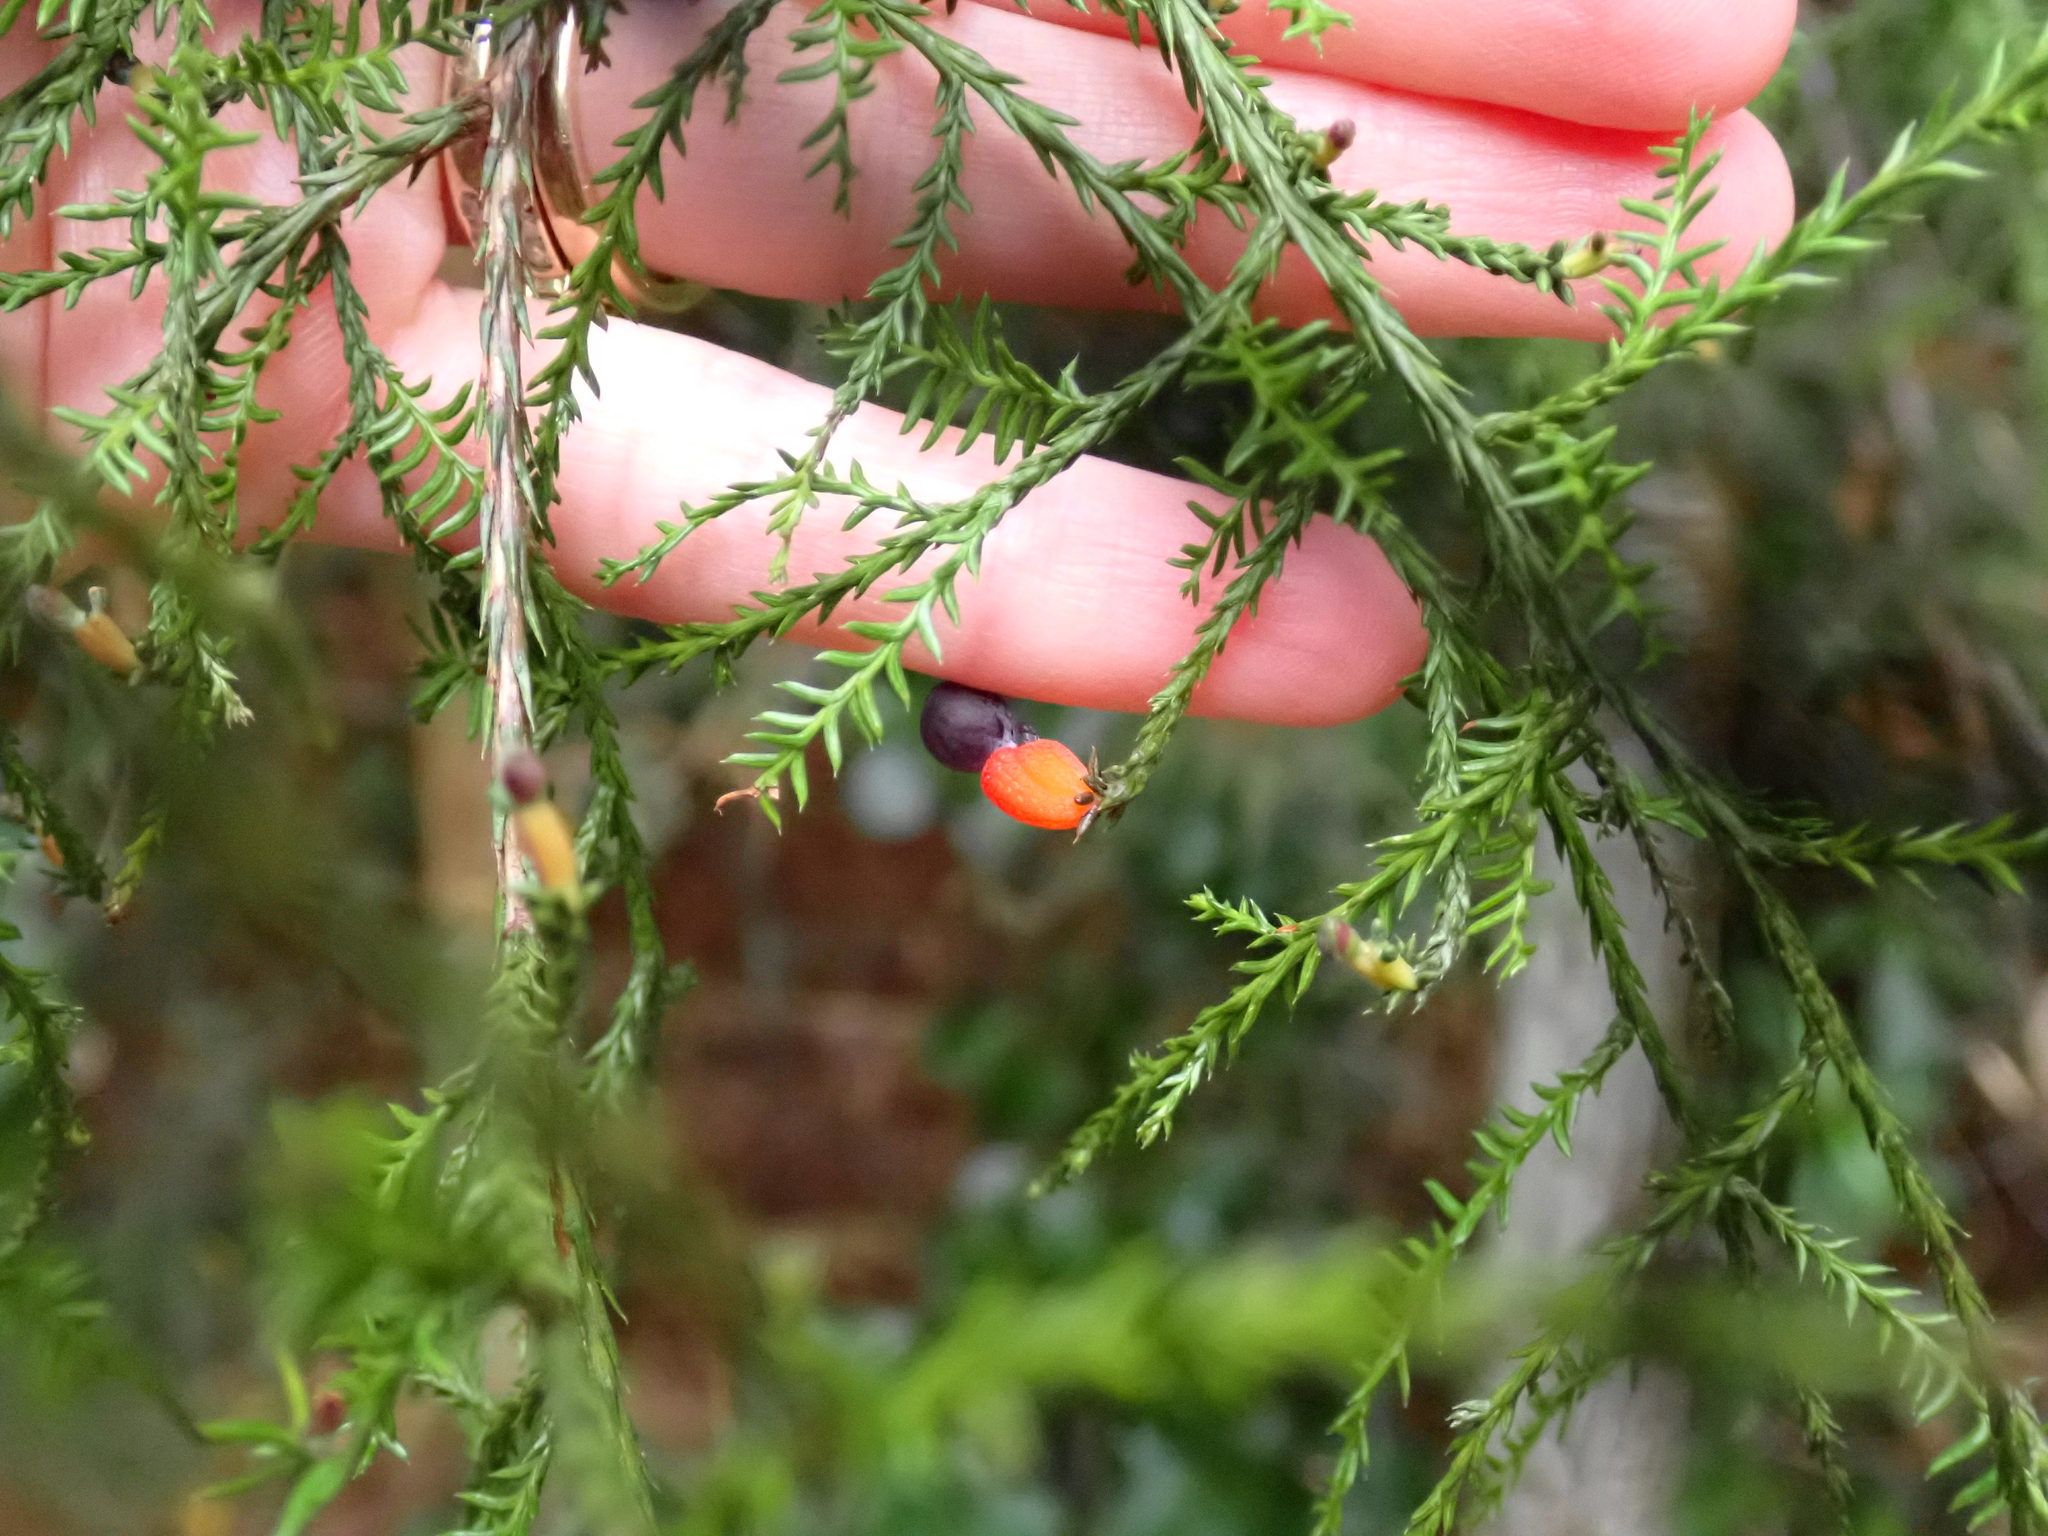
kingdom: Plantae
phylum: Tracheophyta
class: Pinopsida
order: Pinales
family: Podocarpaceae
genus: Dacrycarpus
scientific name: Dacrycarpus dacrydioides
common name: White pine
